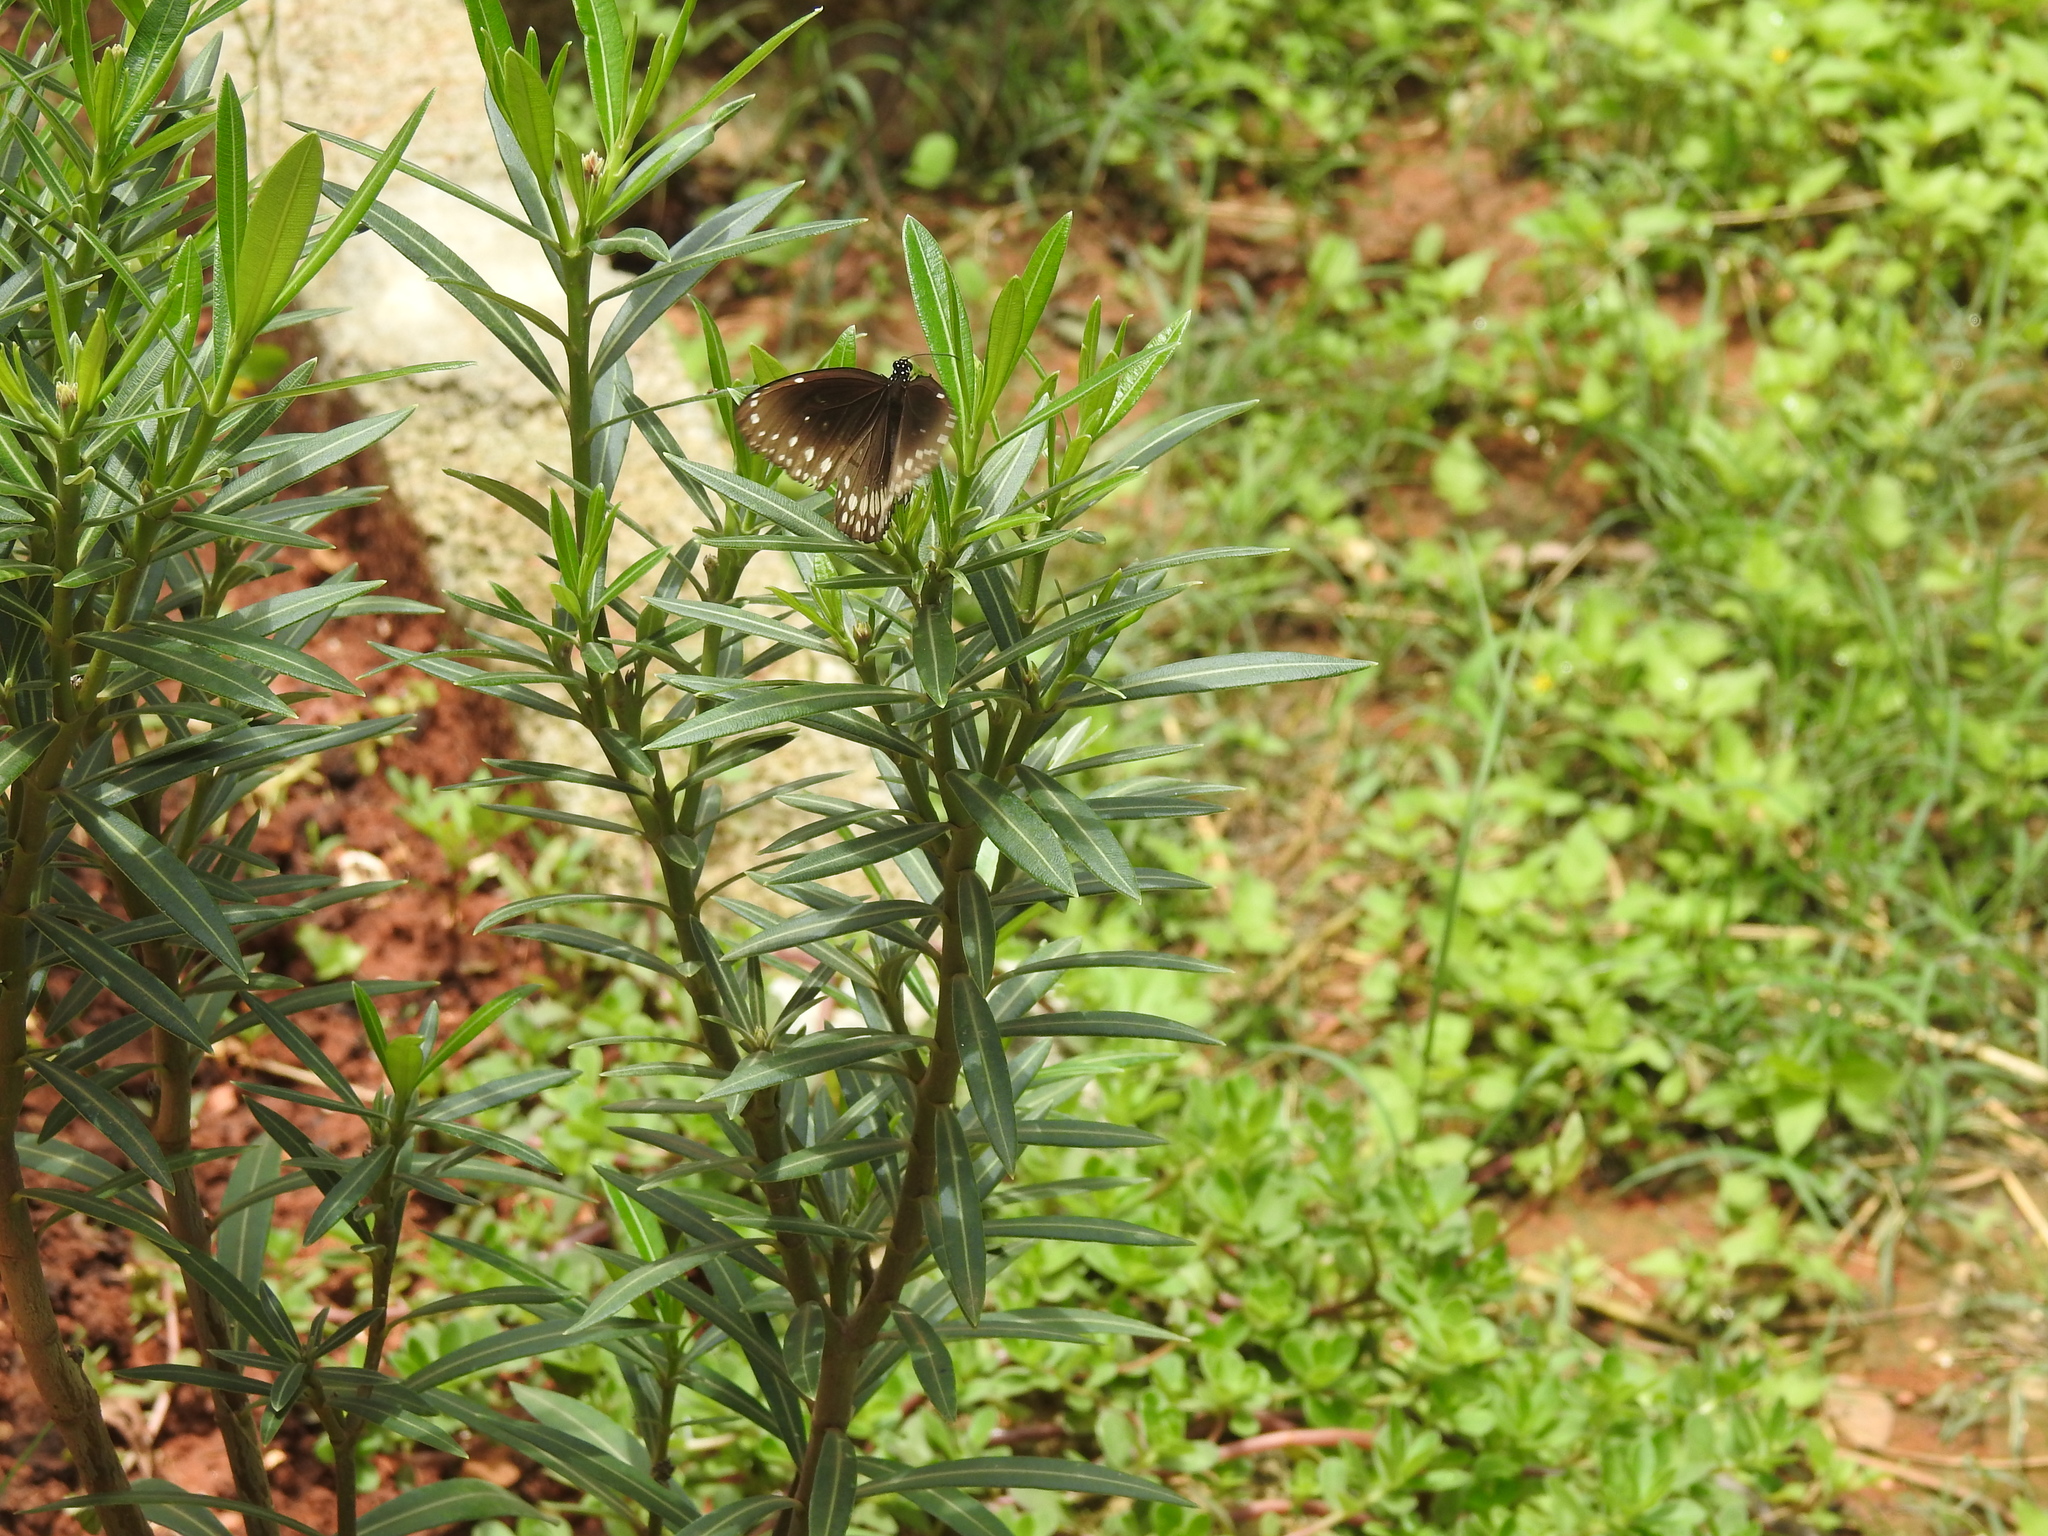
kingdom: Animalia
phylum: Arthropoda
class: Insecta
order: Lepidoptera
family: Nymphalidae
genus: Euploea
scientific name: Euploea core
